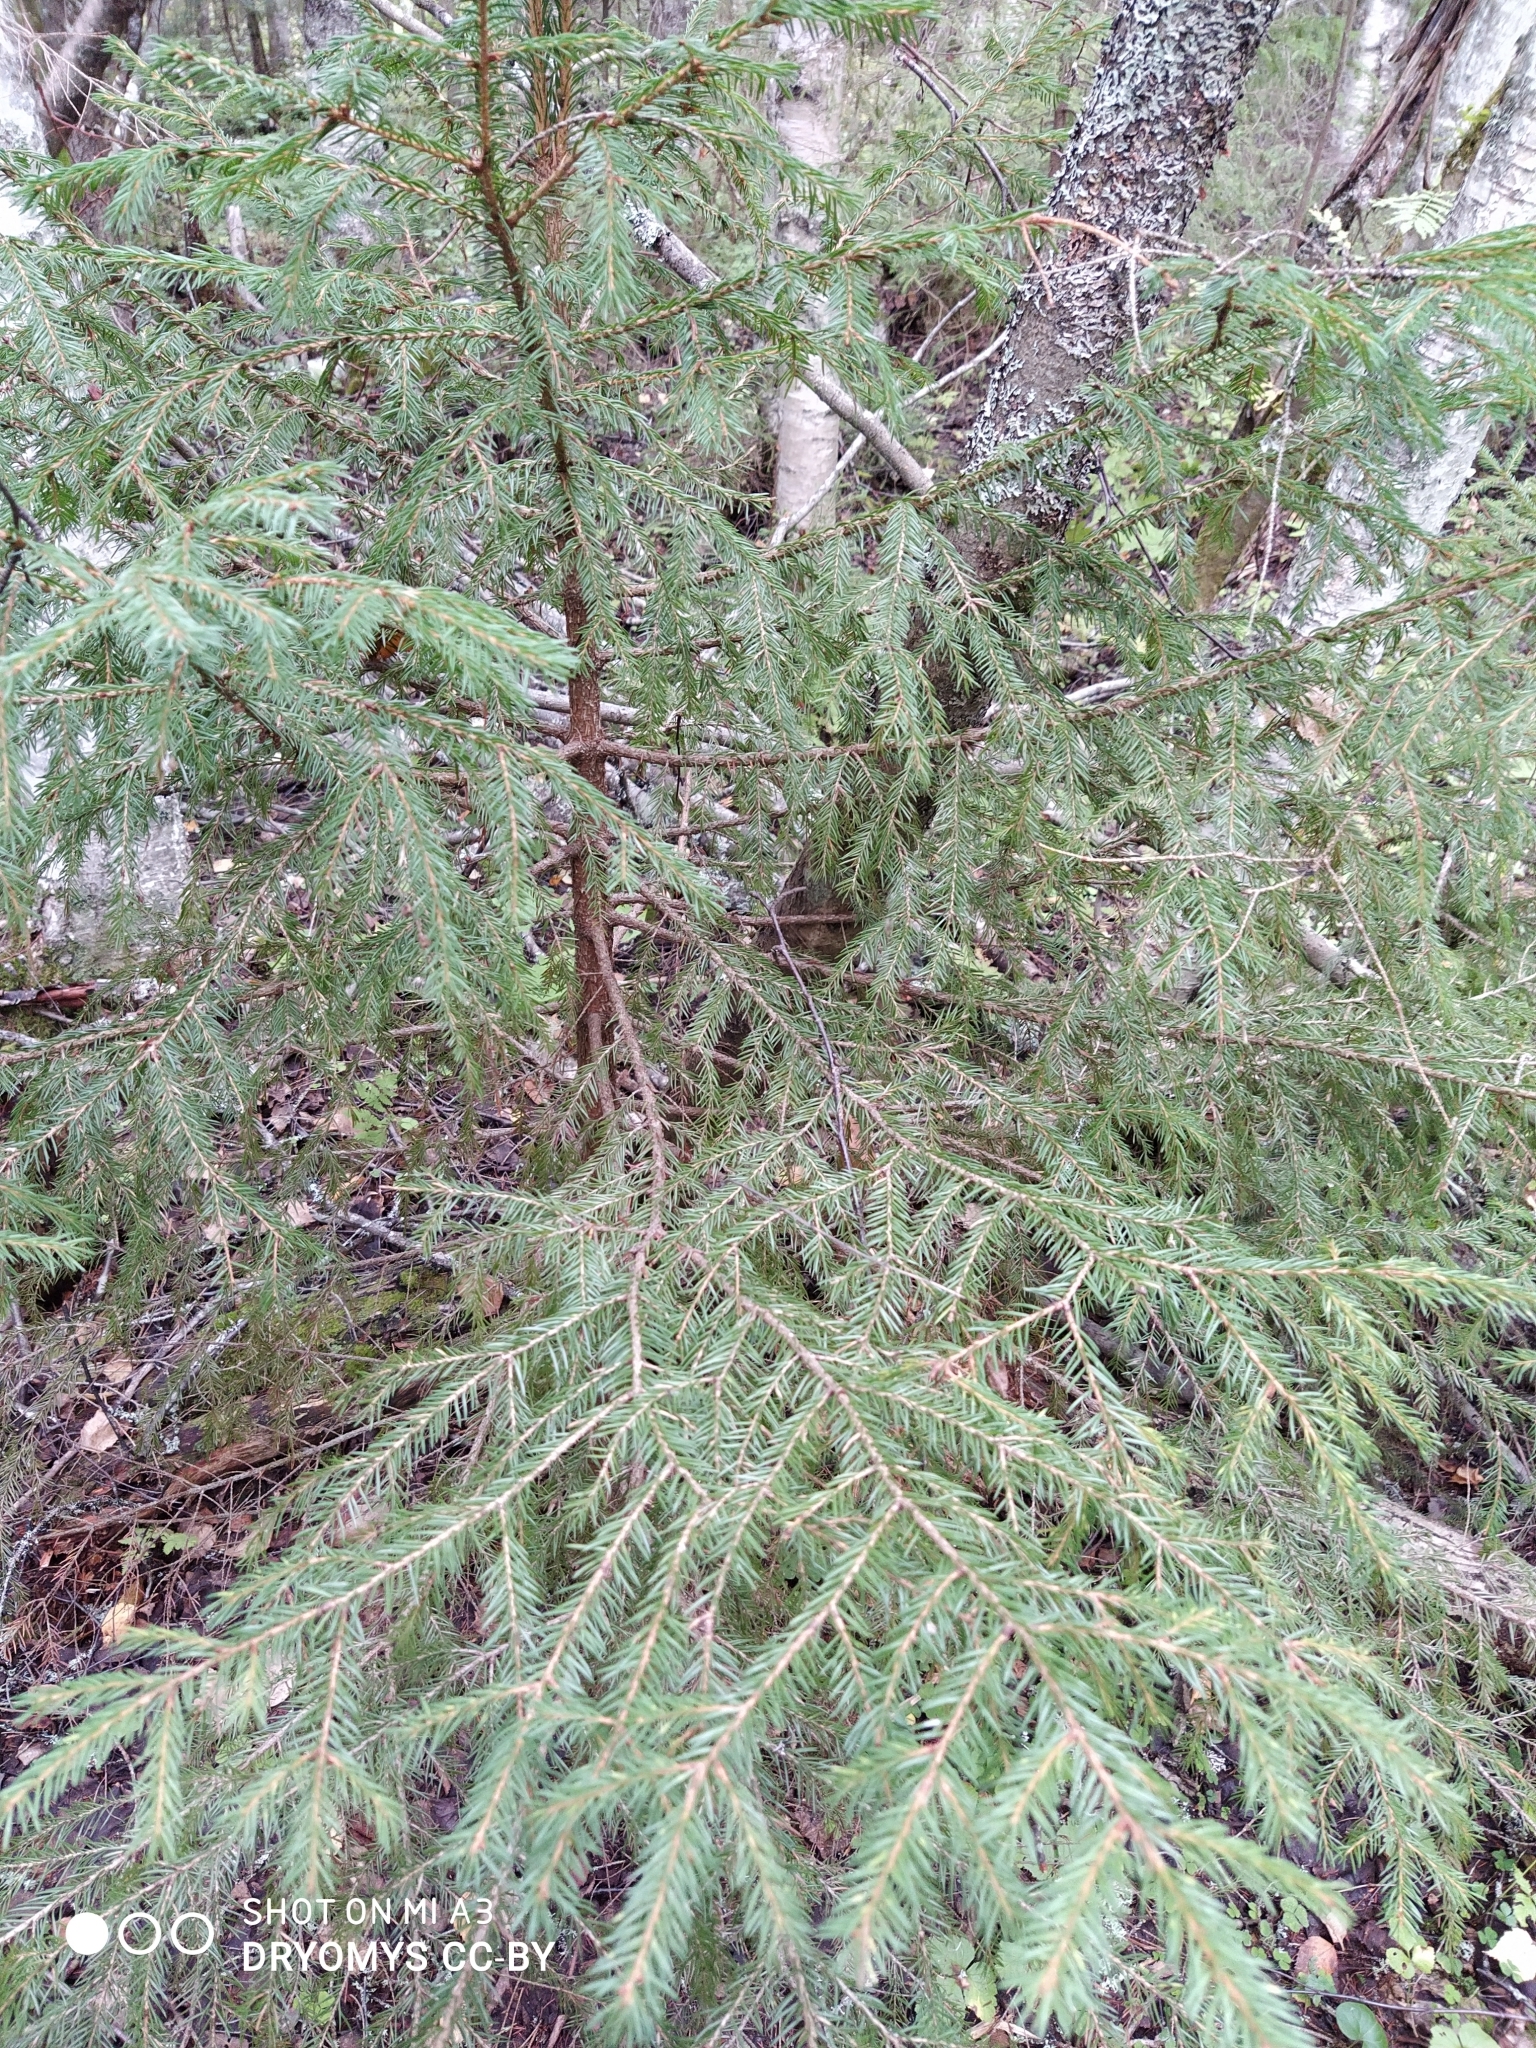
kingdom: Plantae
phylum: Tracheophyta
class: Pinopsida
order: Pinales
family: Pinaceae
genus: Picea
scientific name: Picea
